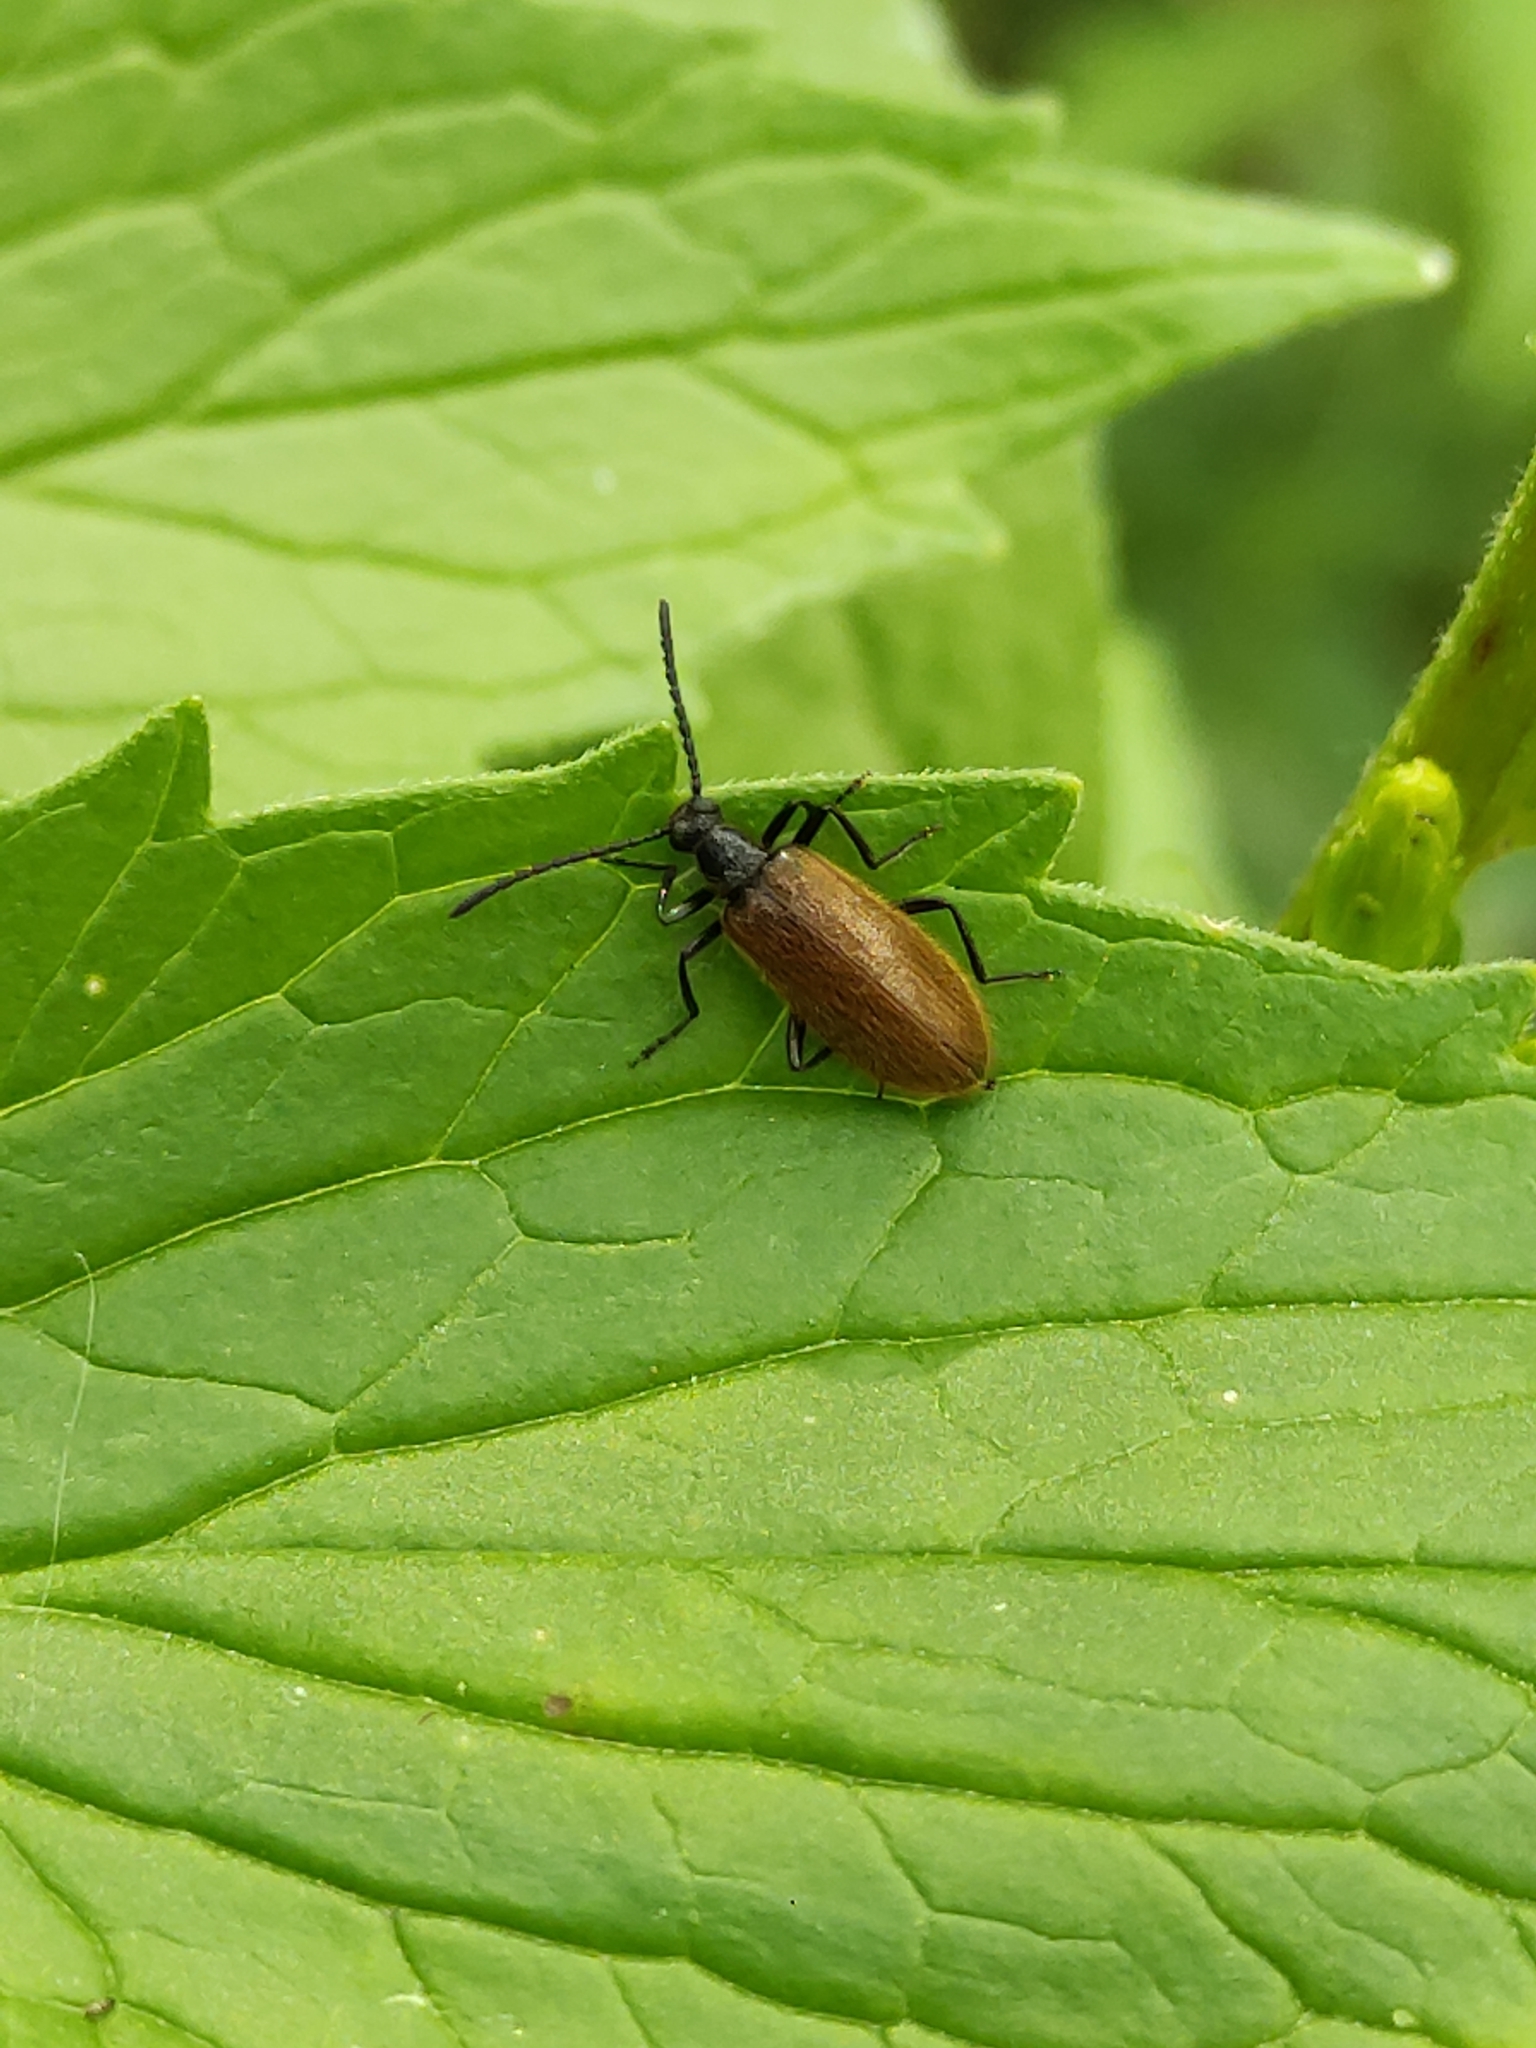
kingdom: Animalia
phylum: Arthropoda
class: Insecta
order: Coleoptera
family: Tenebrionidae
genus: Lagria
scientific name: Lagria hirta
